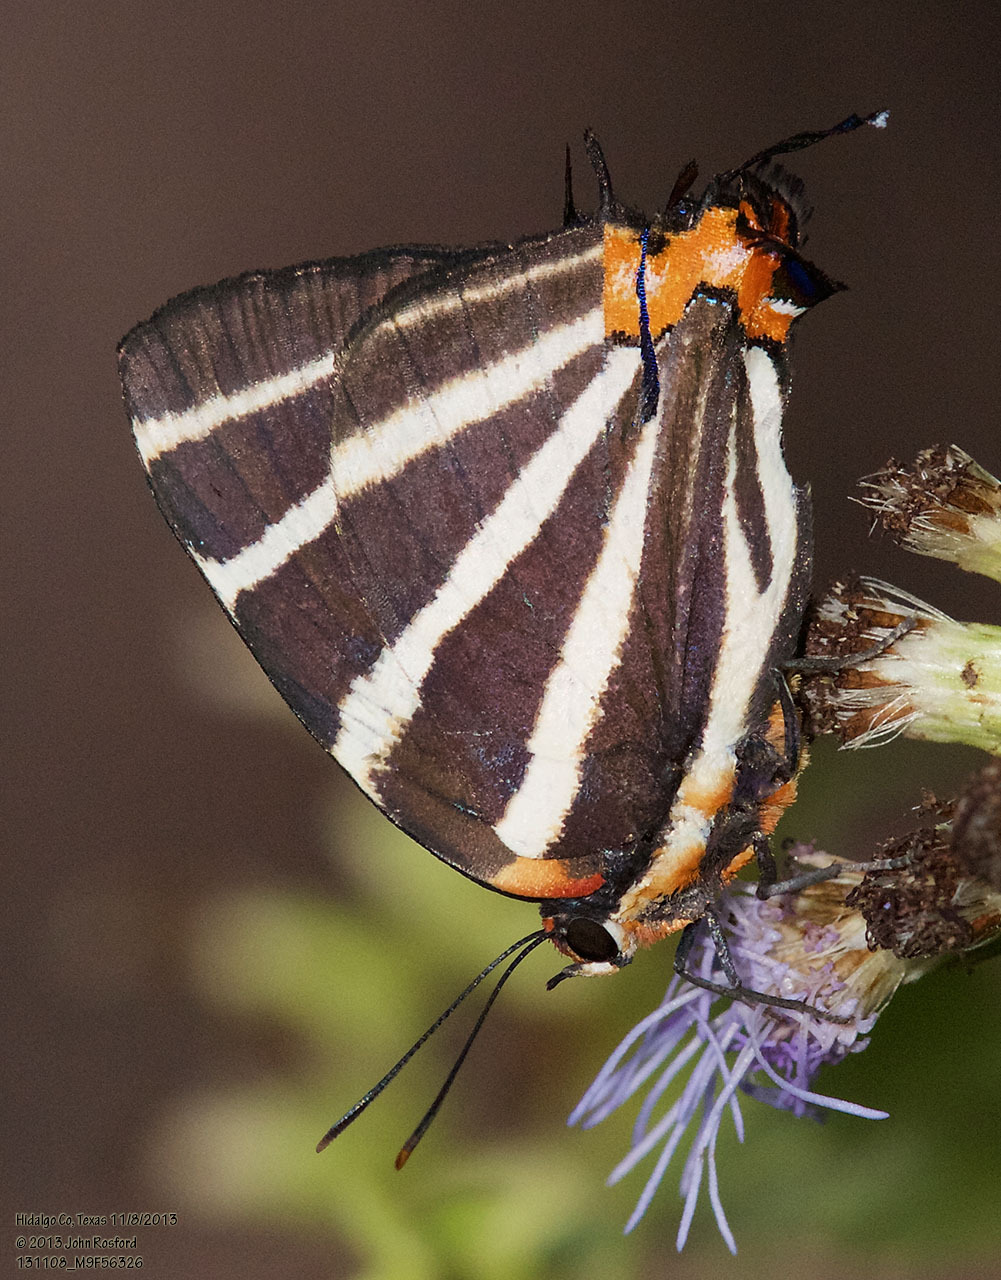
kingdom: Animalia
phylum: Arthropoda
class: Insecta
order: Lepidoptera
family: Lycaenidae
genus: Thecla
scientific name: Thecla bathildis
